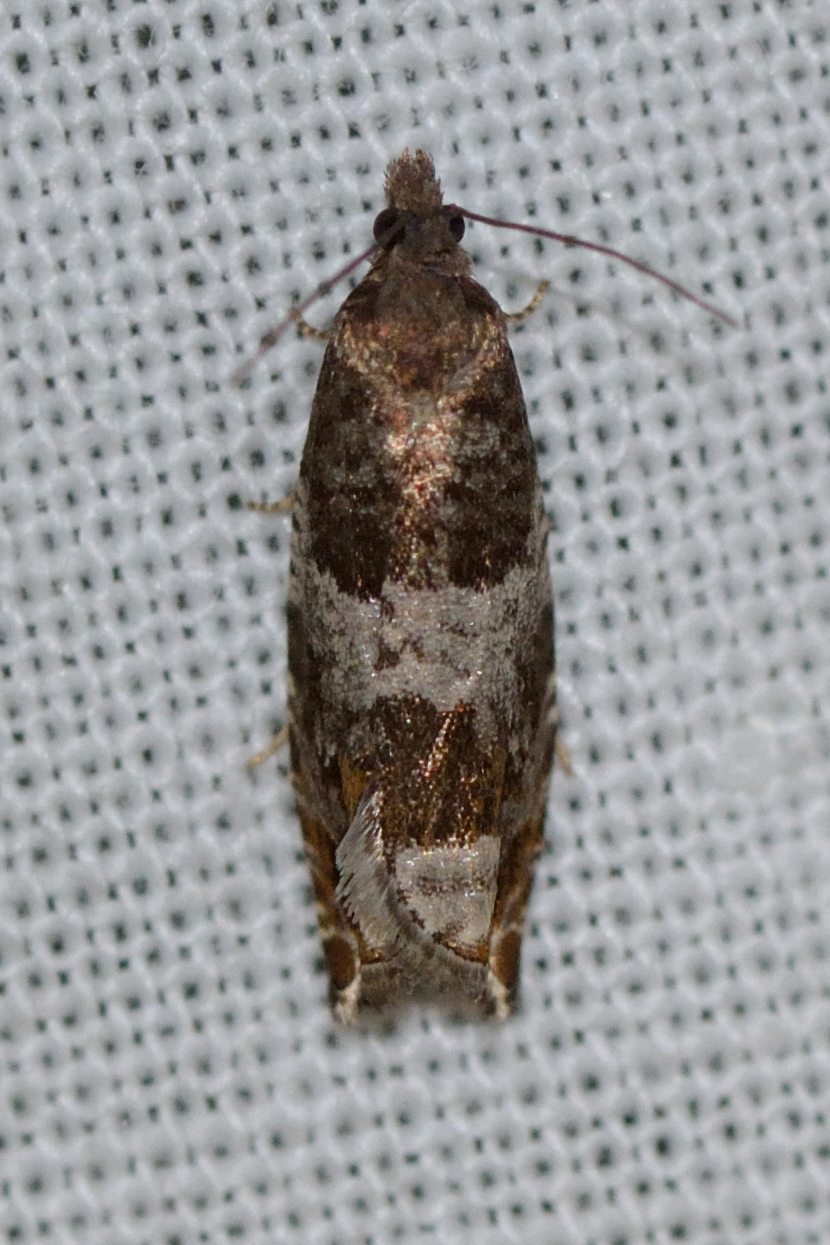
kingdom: Animalia
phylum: Arthropoda
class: Insecta
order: Lepidoptera
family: Tortricidae
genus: Ancylis
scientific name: Ancylis achatana
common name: Triangle-marked roller
